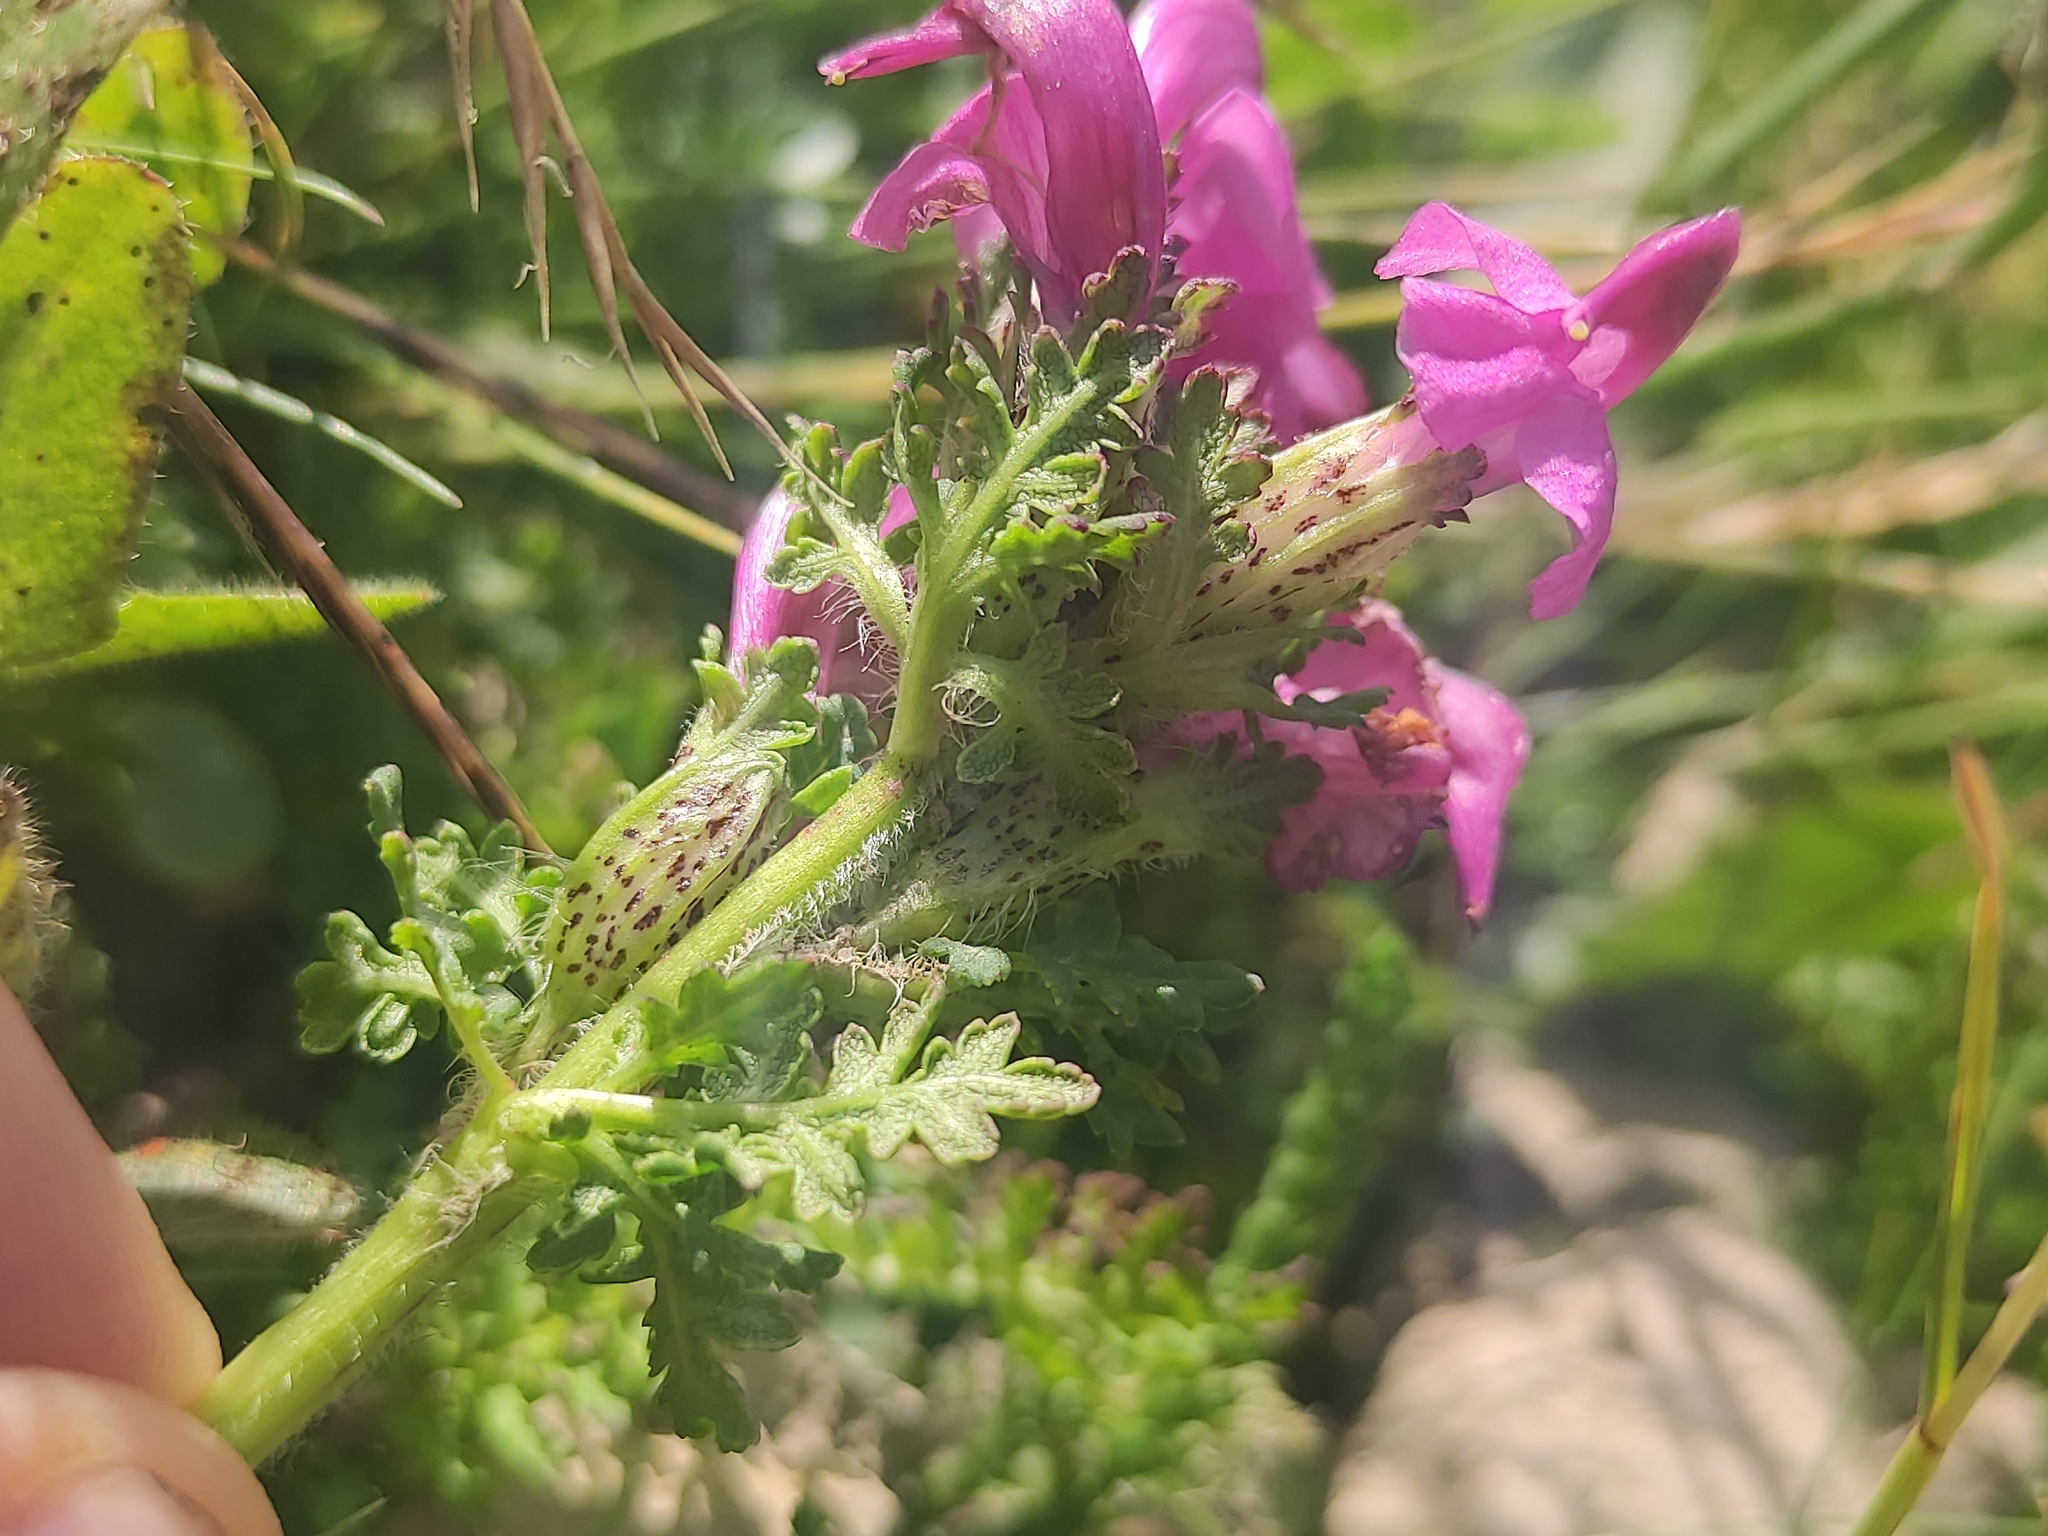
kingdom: Plantae
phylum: Tracheophyta
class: Magnoliopsida
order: Lamiales
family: Orobanchaceae
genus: Pedicularis
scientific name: Pedicularis pyrenaica
